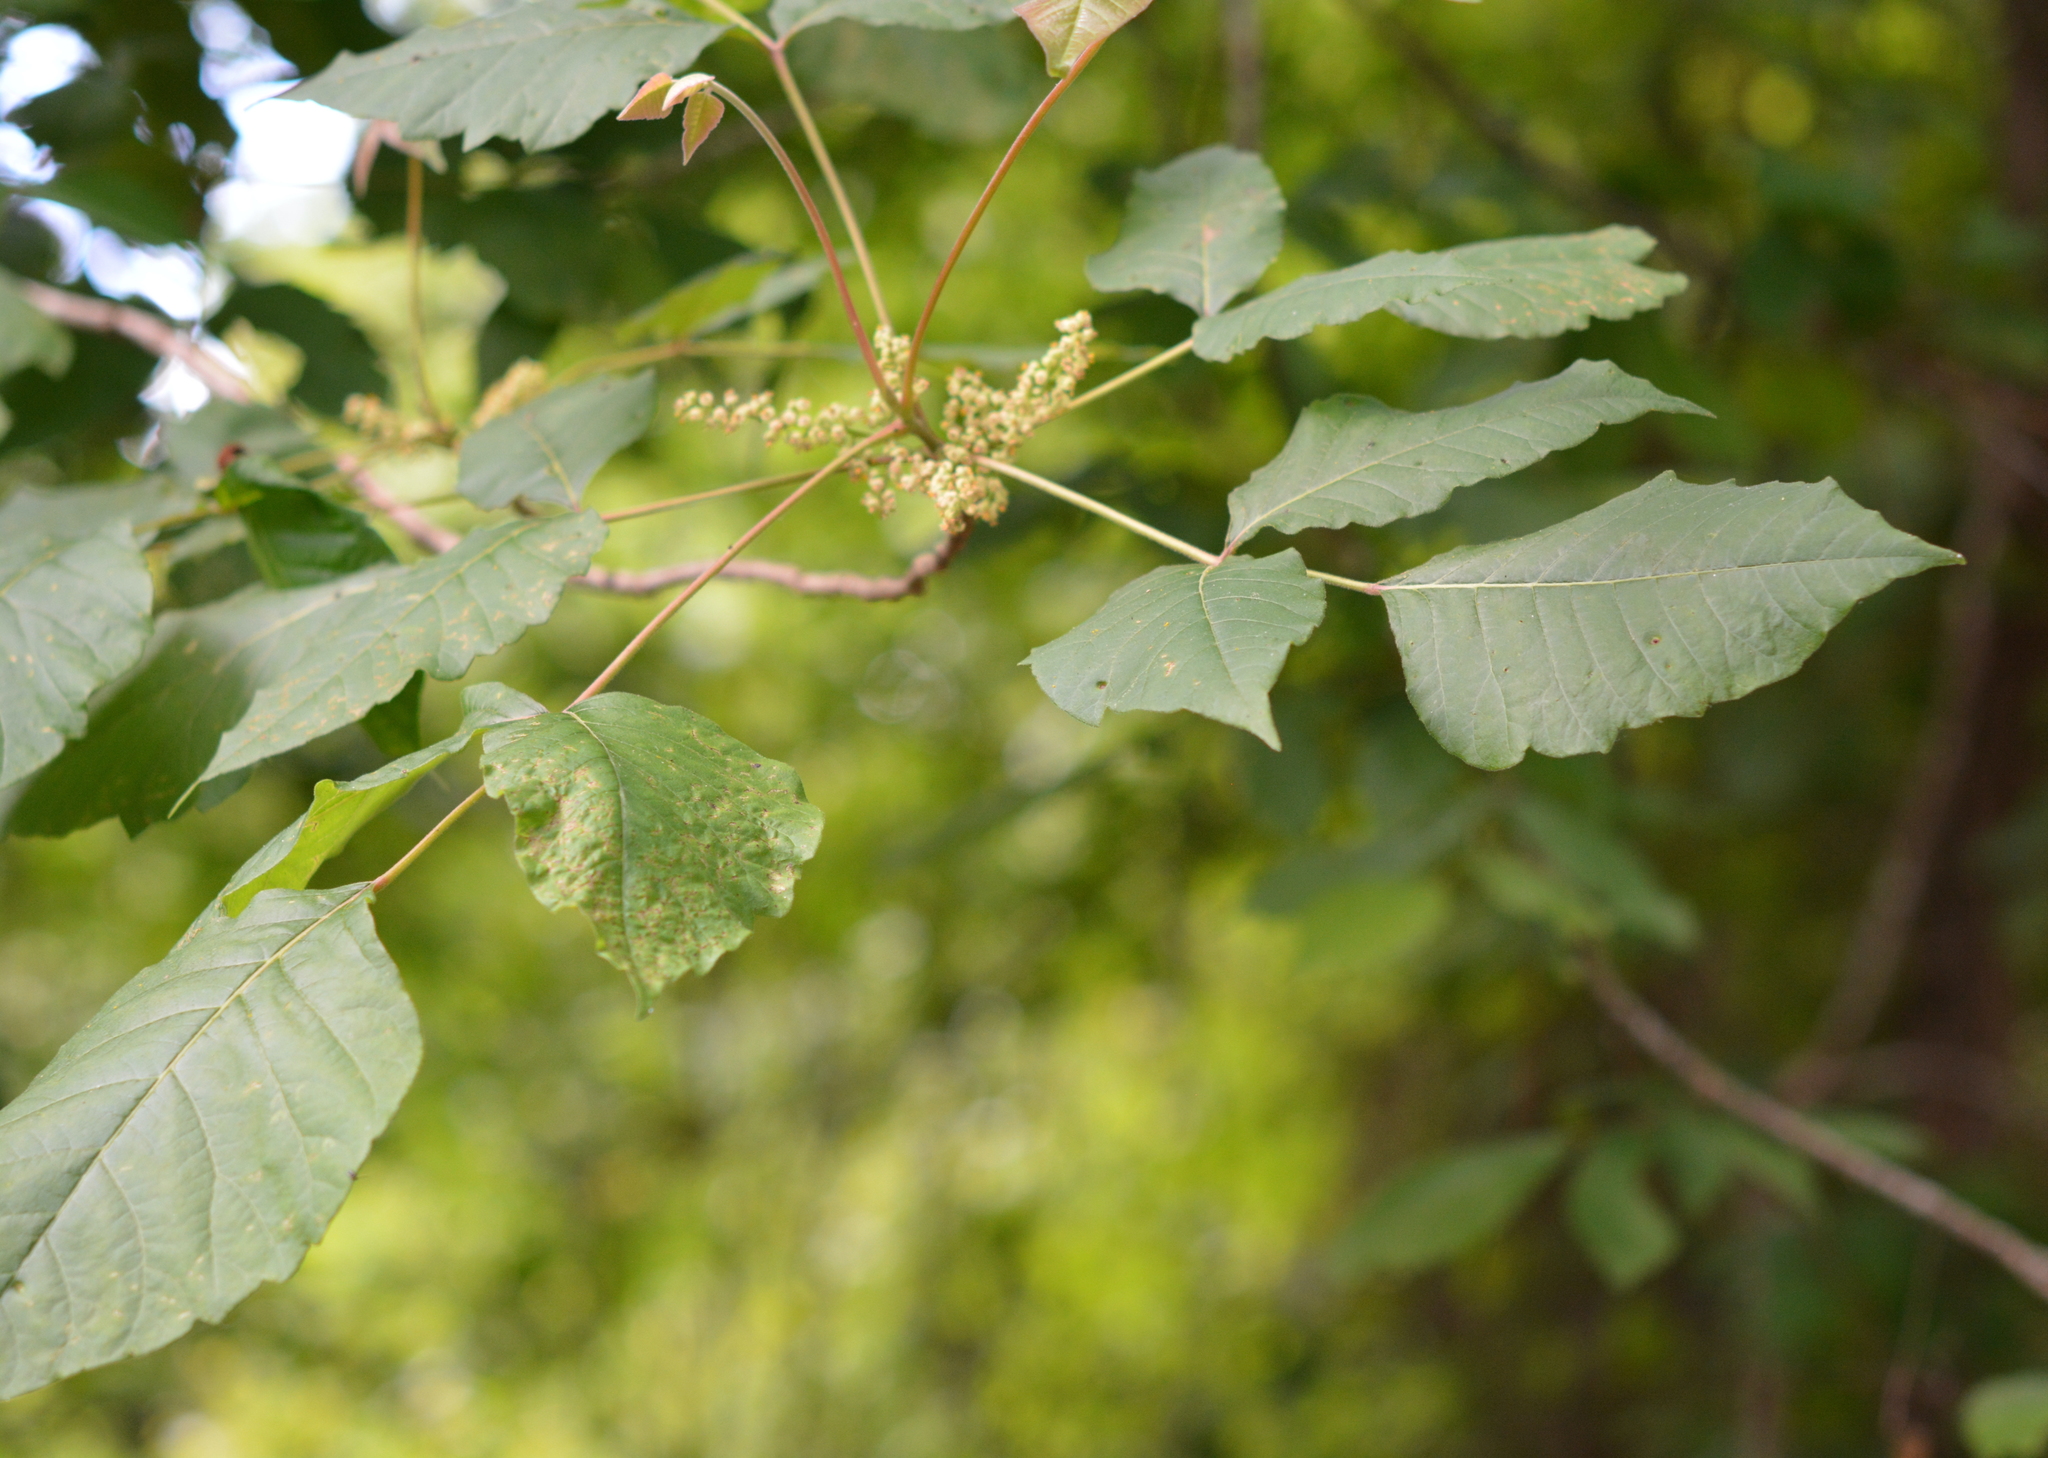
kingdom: Plantae
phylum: Tracheophyta
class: Magnoliopsida
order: Sapindales
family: Anacardiaceae
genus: Toxicodendron
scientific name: Toxicodendron radicans
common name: Poison ivy
